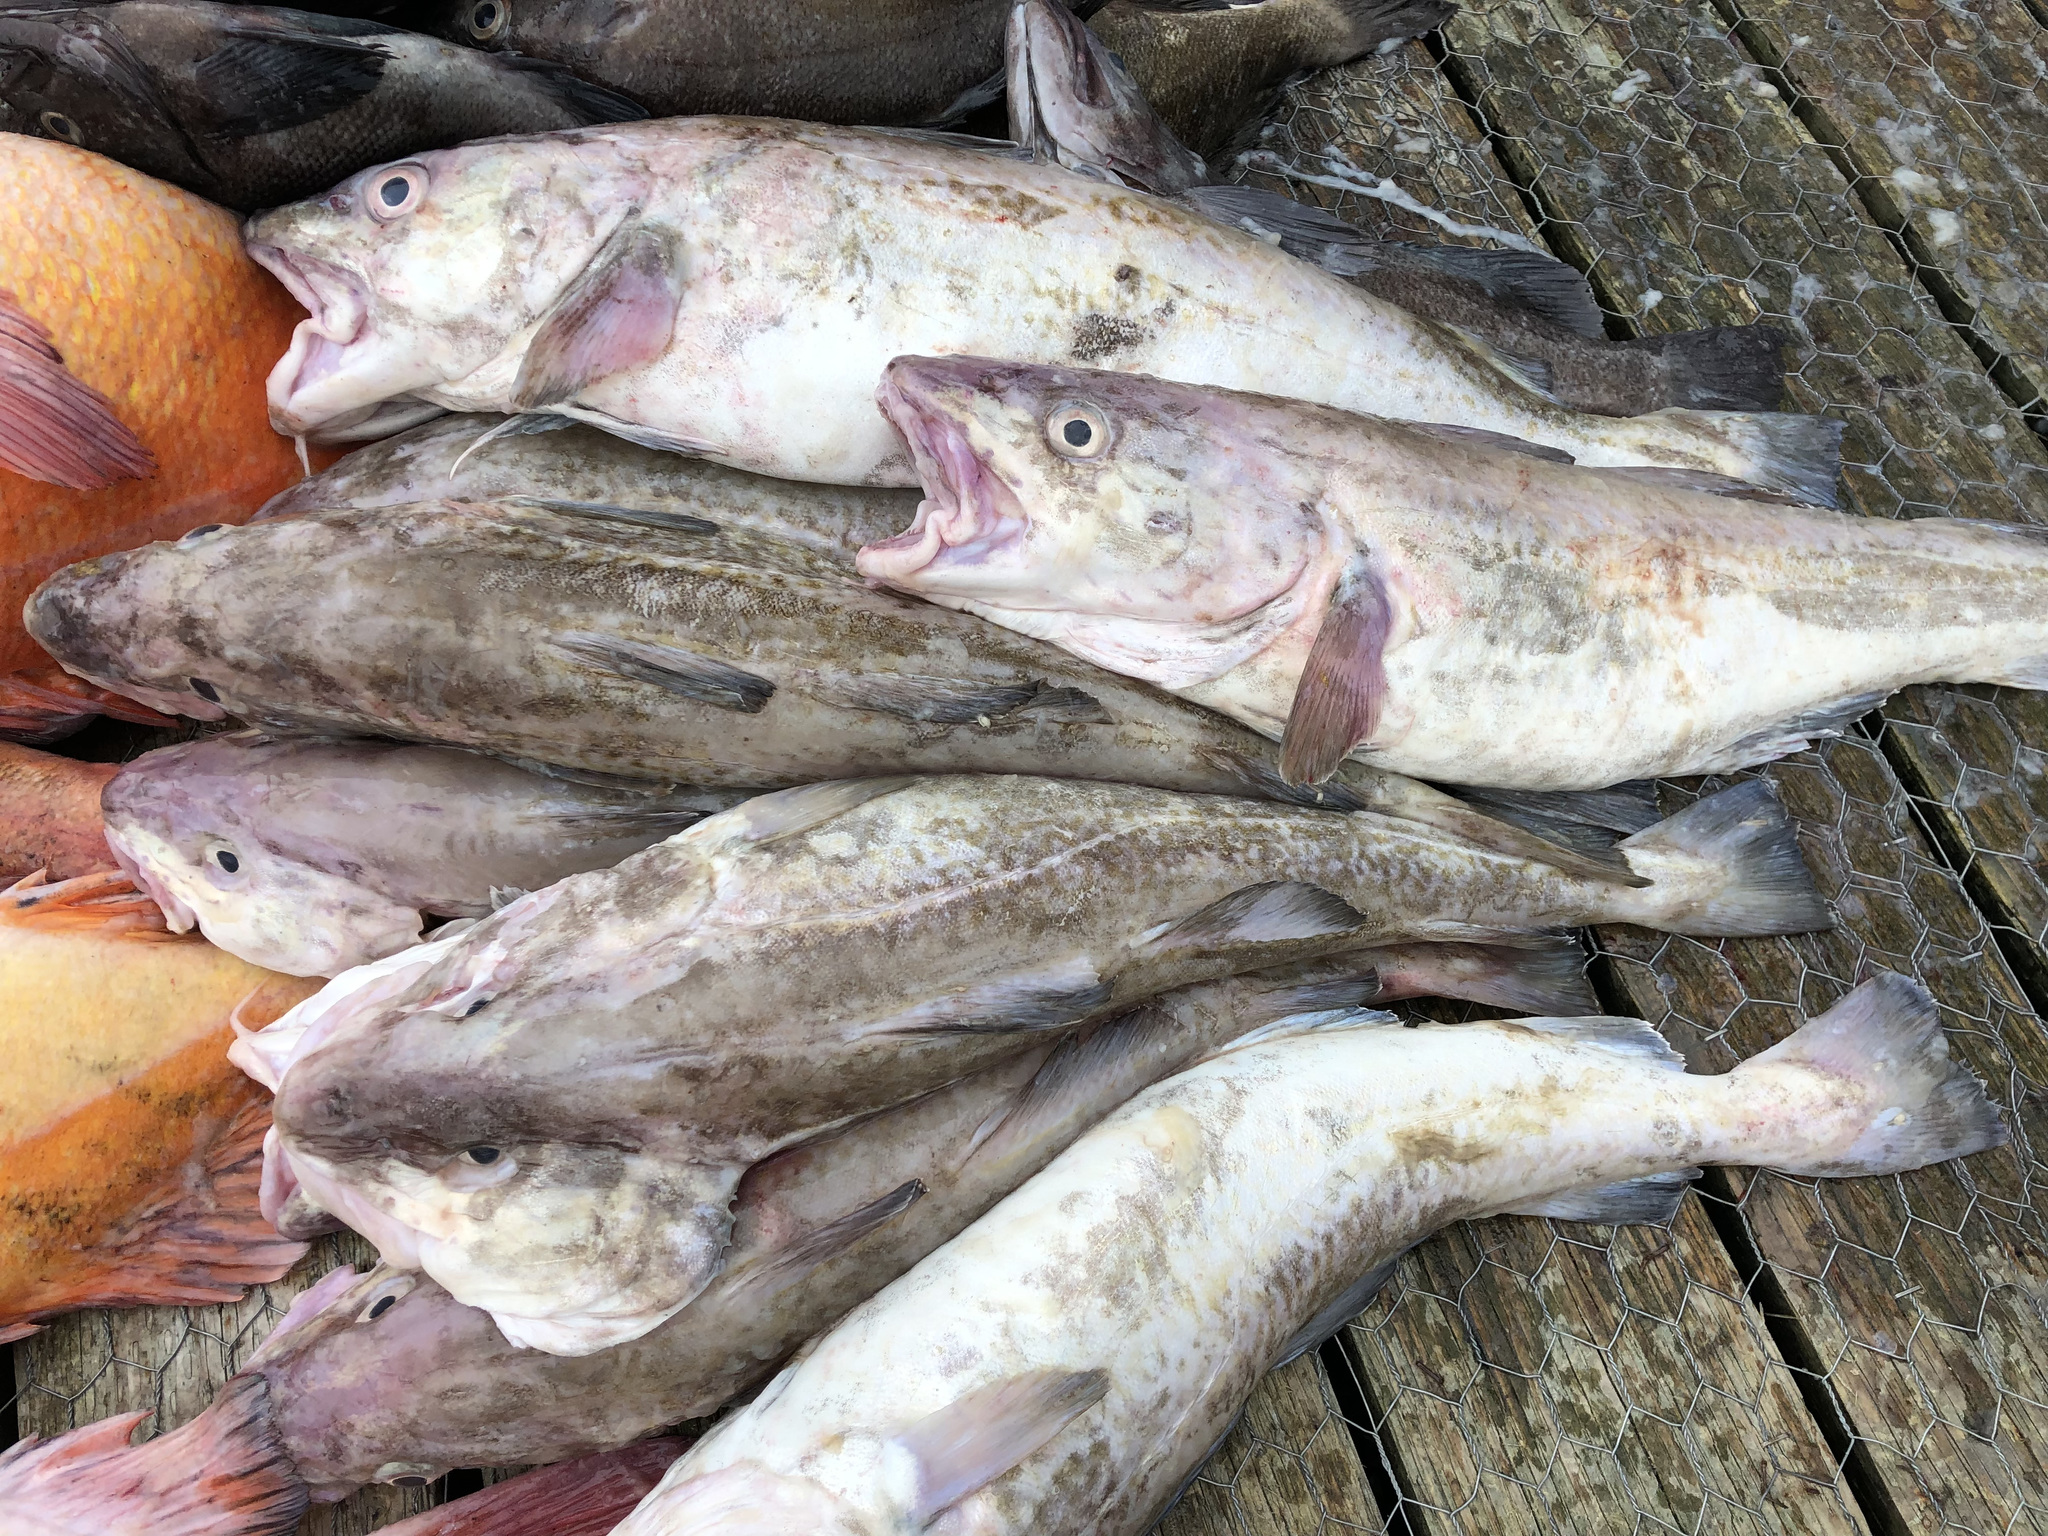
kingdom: Animalia
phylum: Chordata
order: Gadiformes
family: Gadidae
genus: Gadus
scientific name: Gadus macrocephalus
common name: Pacific cod
